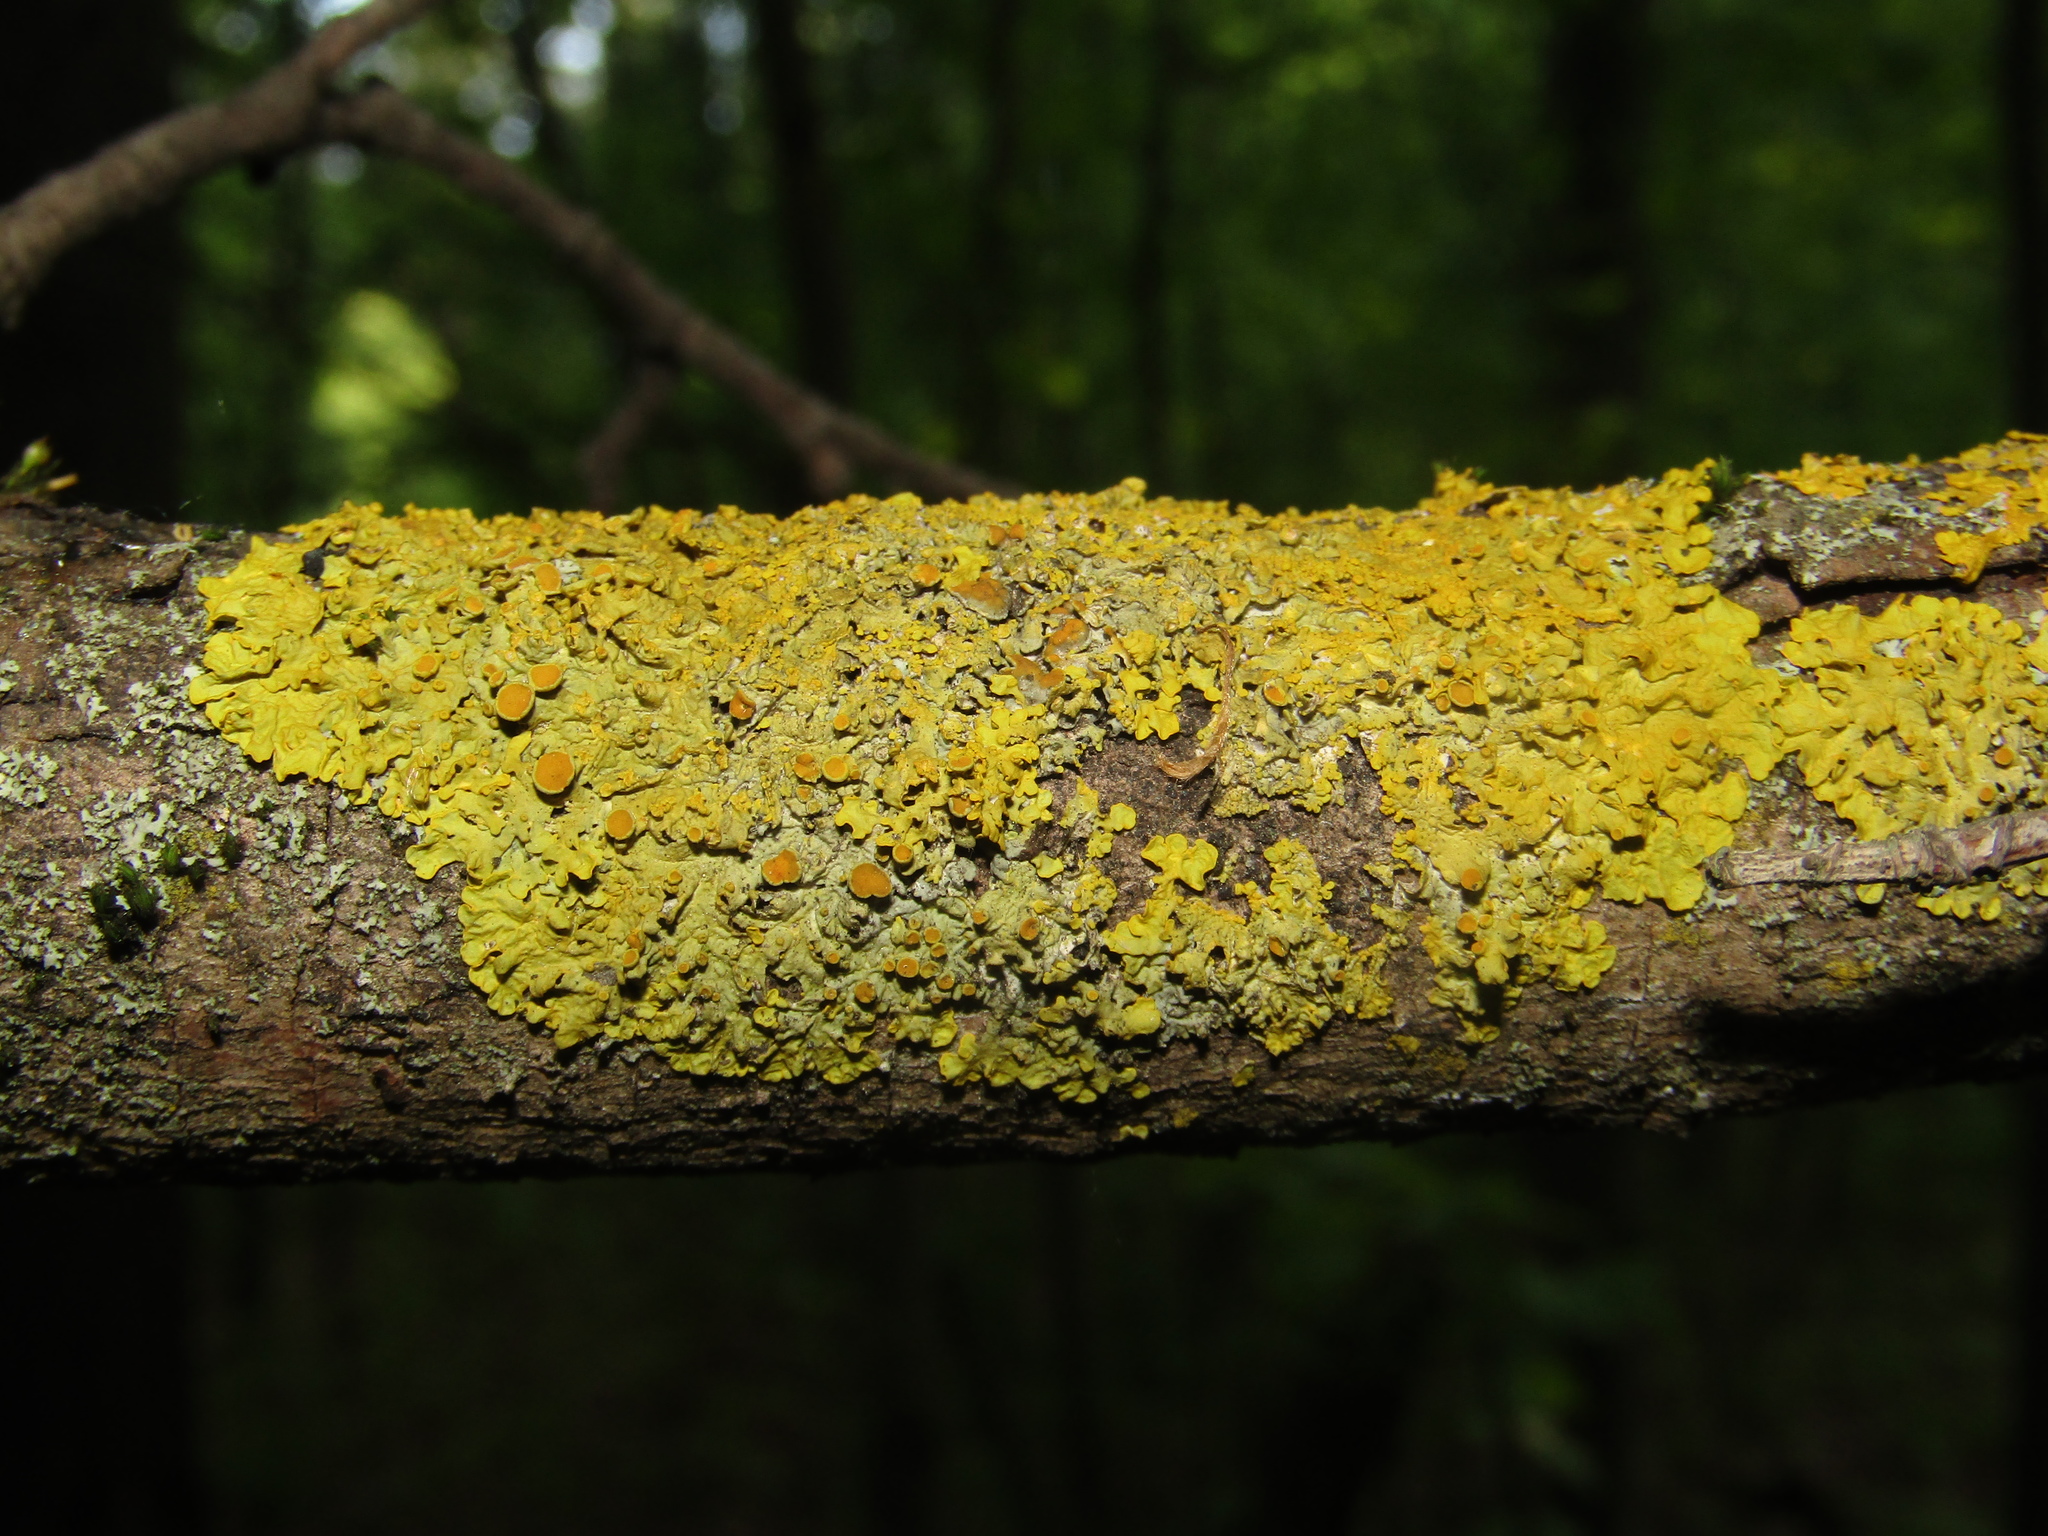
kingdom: Fungi
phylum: Ascomycota
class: Lecanoromycetes
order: Teloschistales
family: Teloschistaceae
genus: Xanthoria
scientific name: Xanthoria parietina
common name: Common orange lichen
